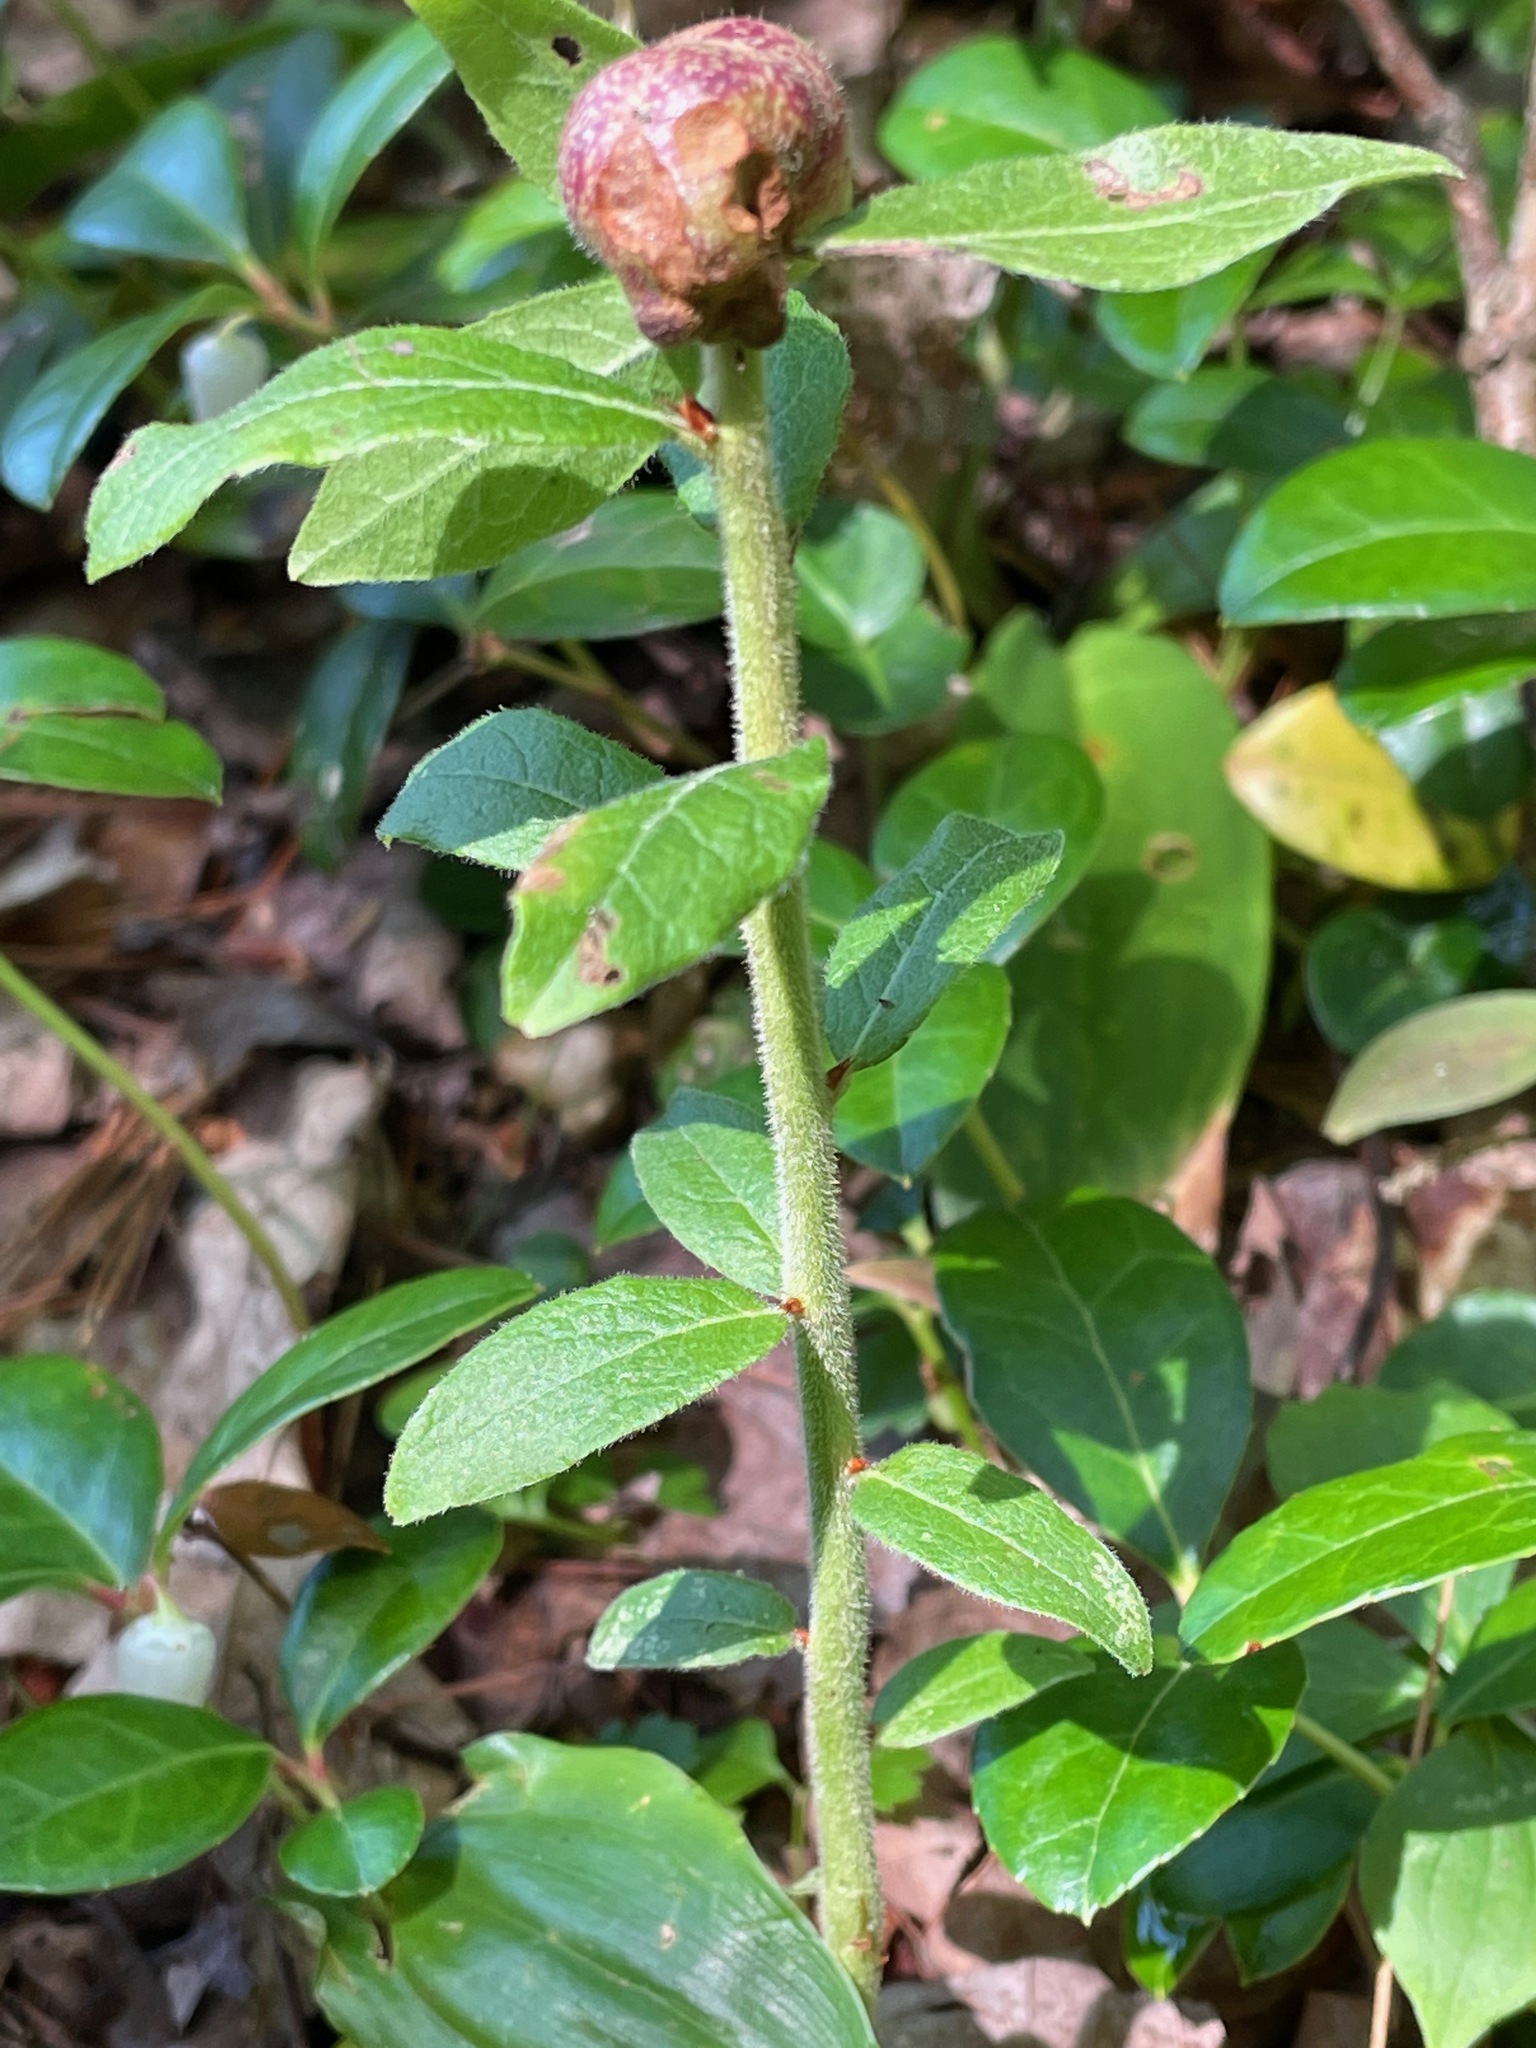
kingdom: Animalia
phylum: Arthropoda
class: Insecta
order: Hymenoptera
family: Pteromalidae
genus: Hemadas
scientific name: Hemadas nubilipennis
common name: Blueberry stem gall wasp
